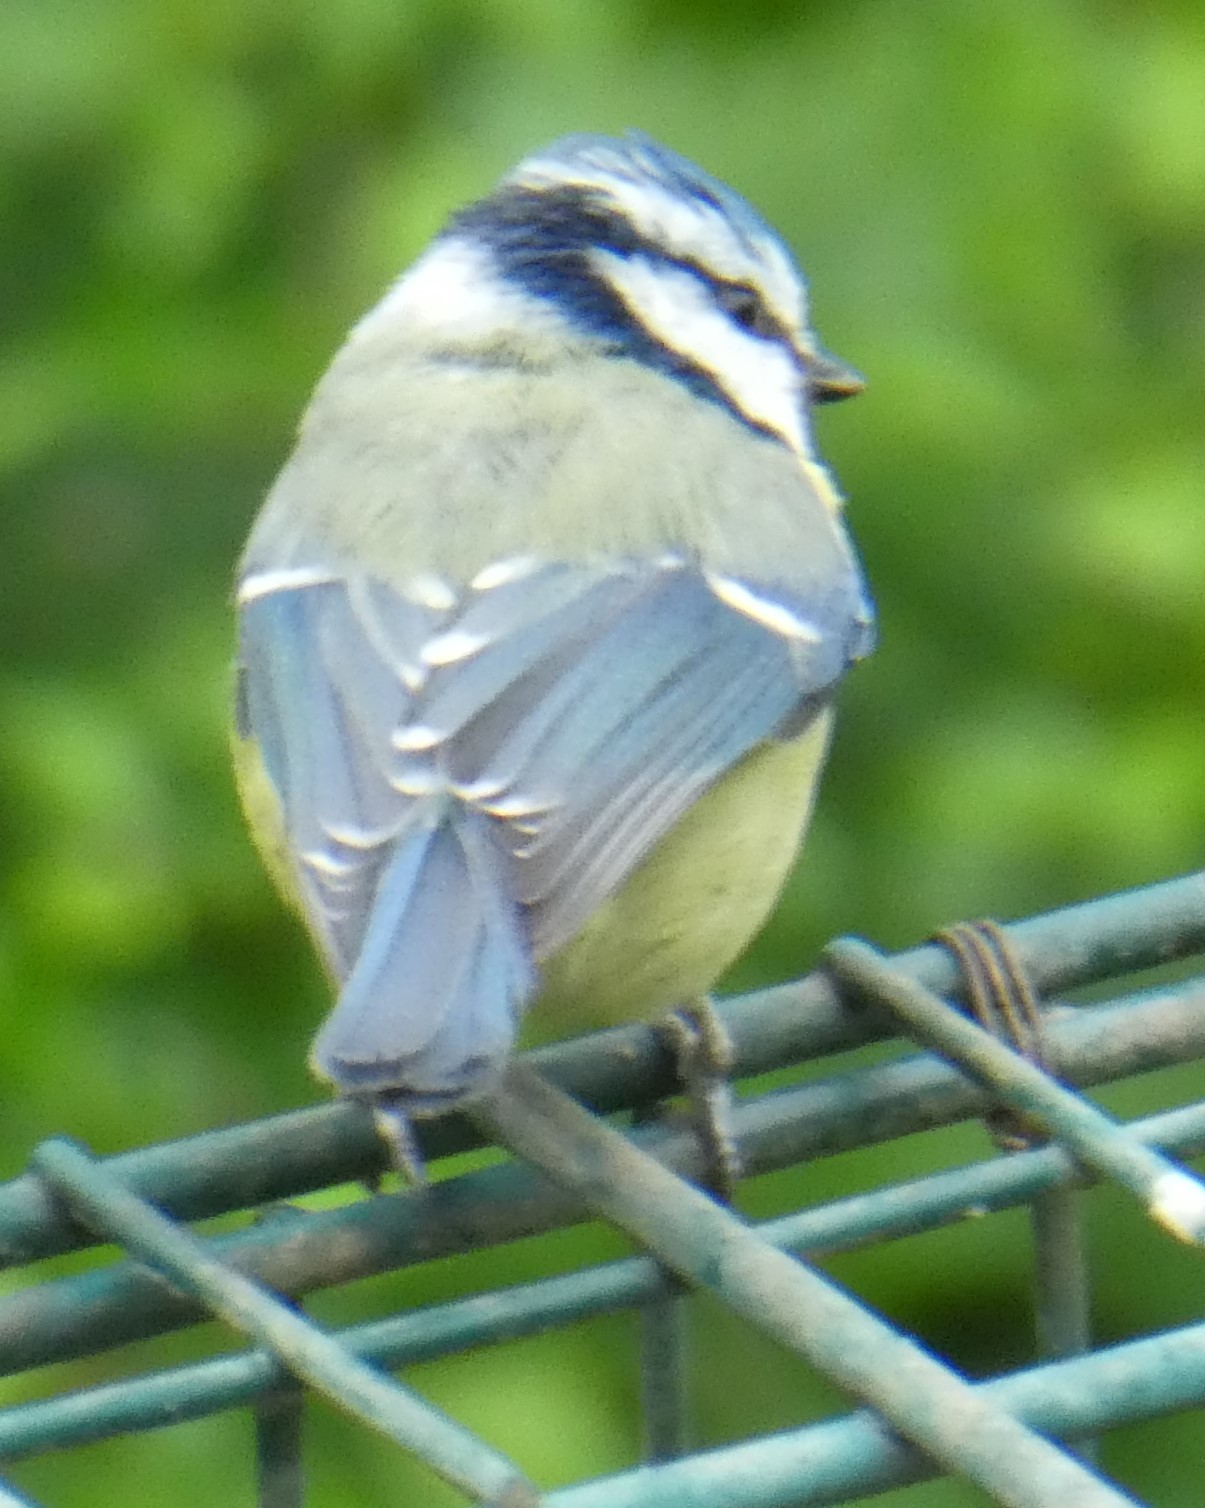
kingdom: Animalia
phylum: Chordata
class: Aves
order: Passeriformes
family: Paridae
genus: Cyanistes
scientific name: Cyanistes caeruleus
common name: Eurasian blue tit
